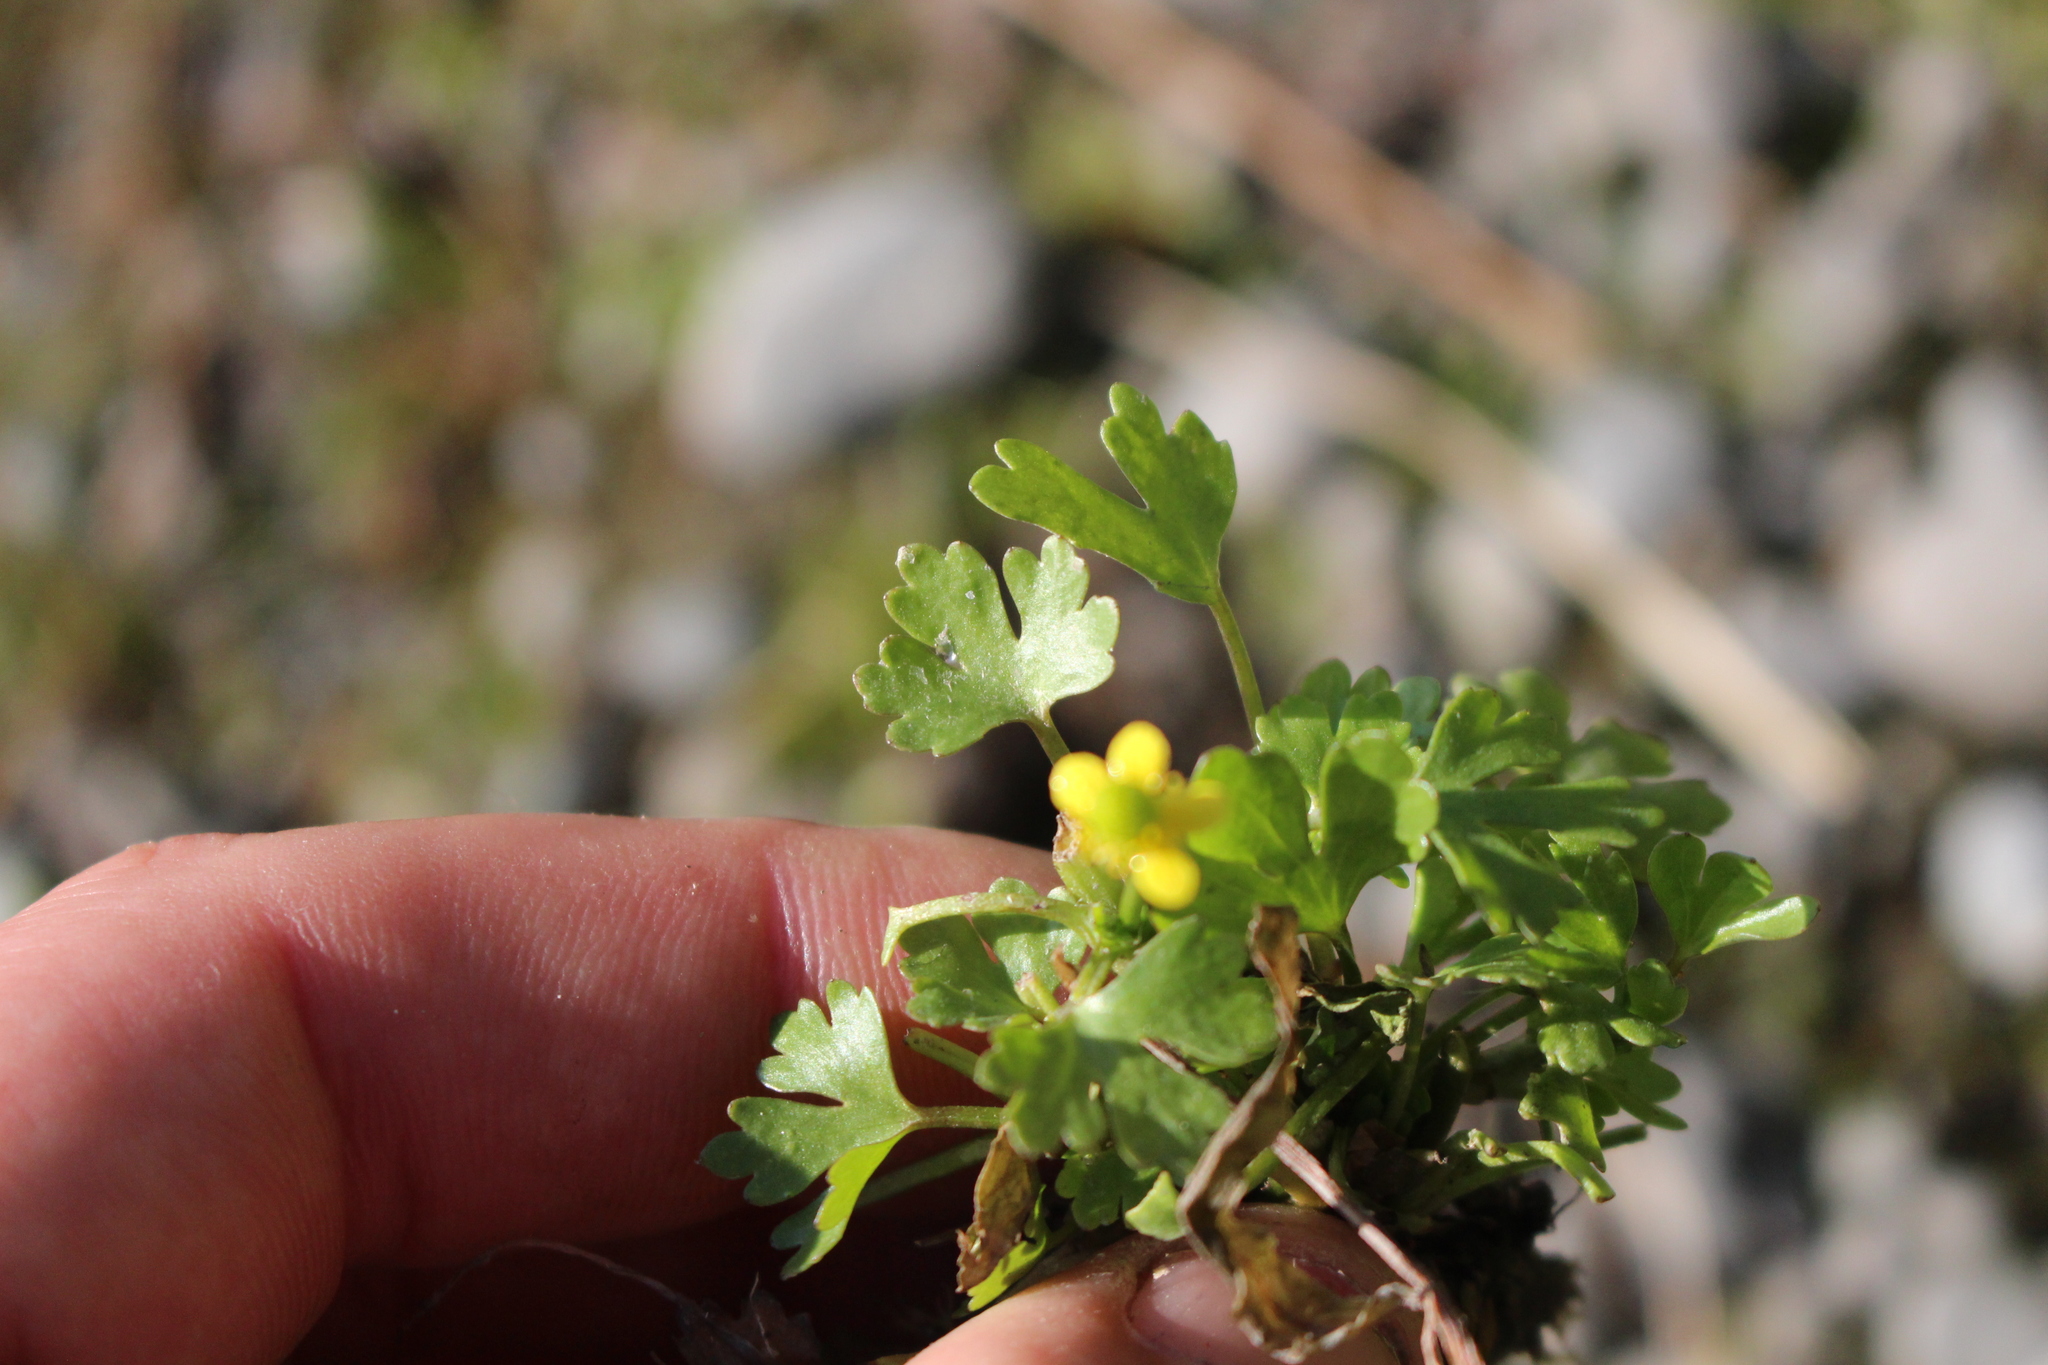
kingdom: Plantae
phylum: Tracheophyta
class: Magnoliopsida
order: Ranunculales
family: Ranunculaceae
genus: Ranunculus
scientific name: Ranunculus sceleratus
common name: Celery-leaved buttercup
